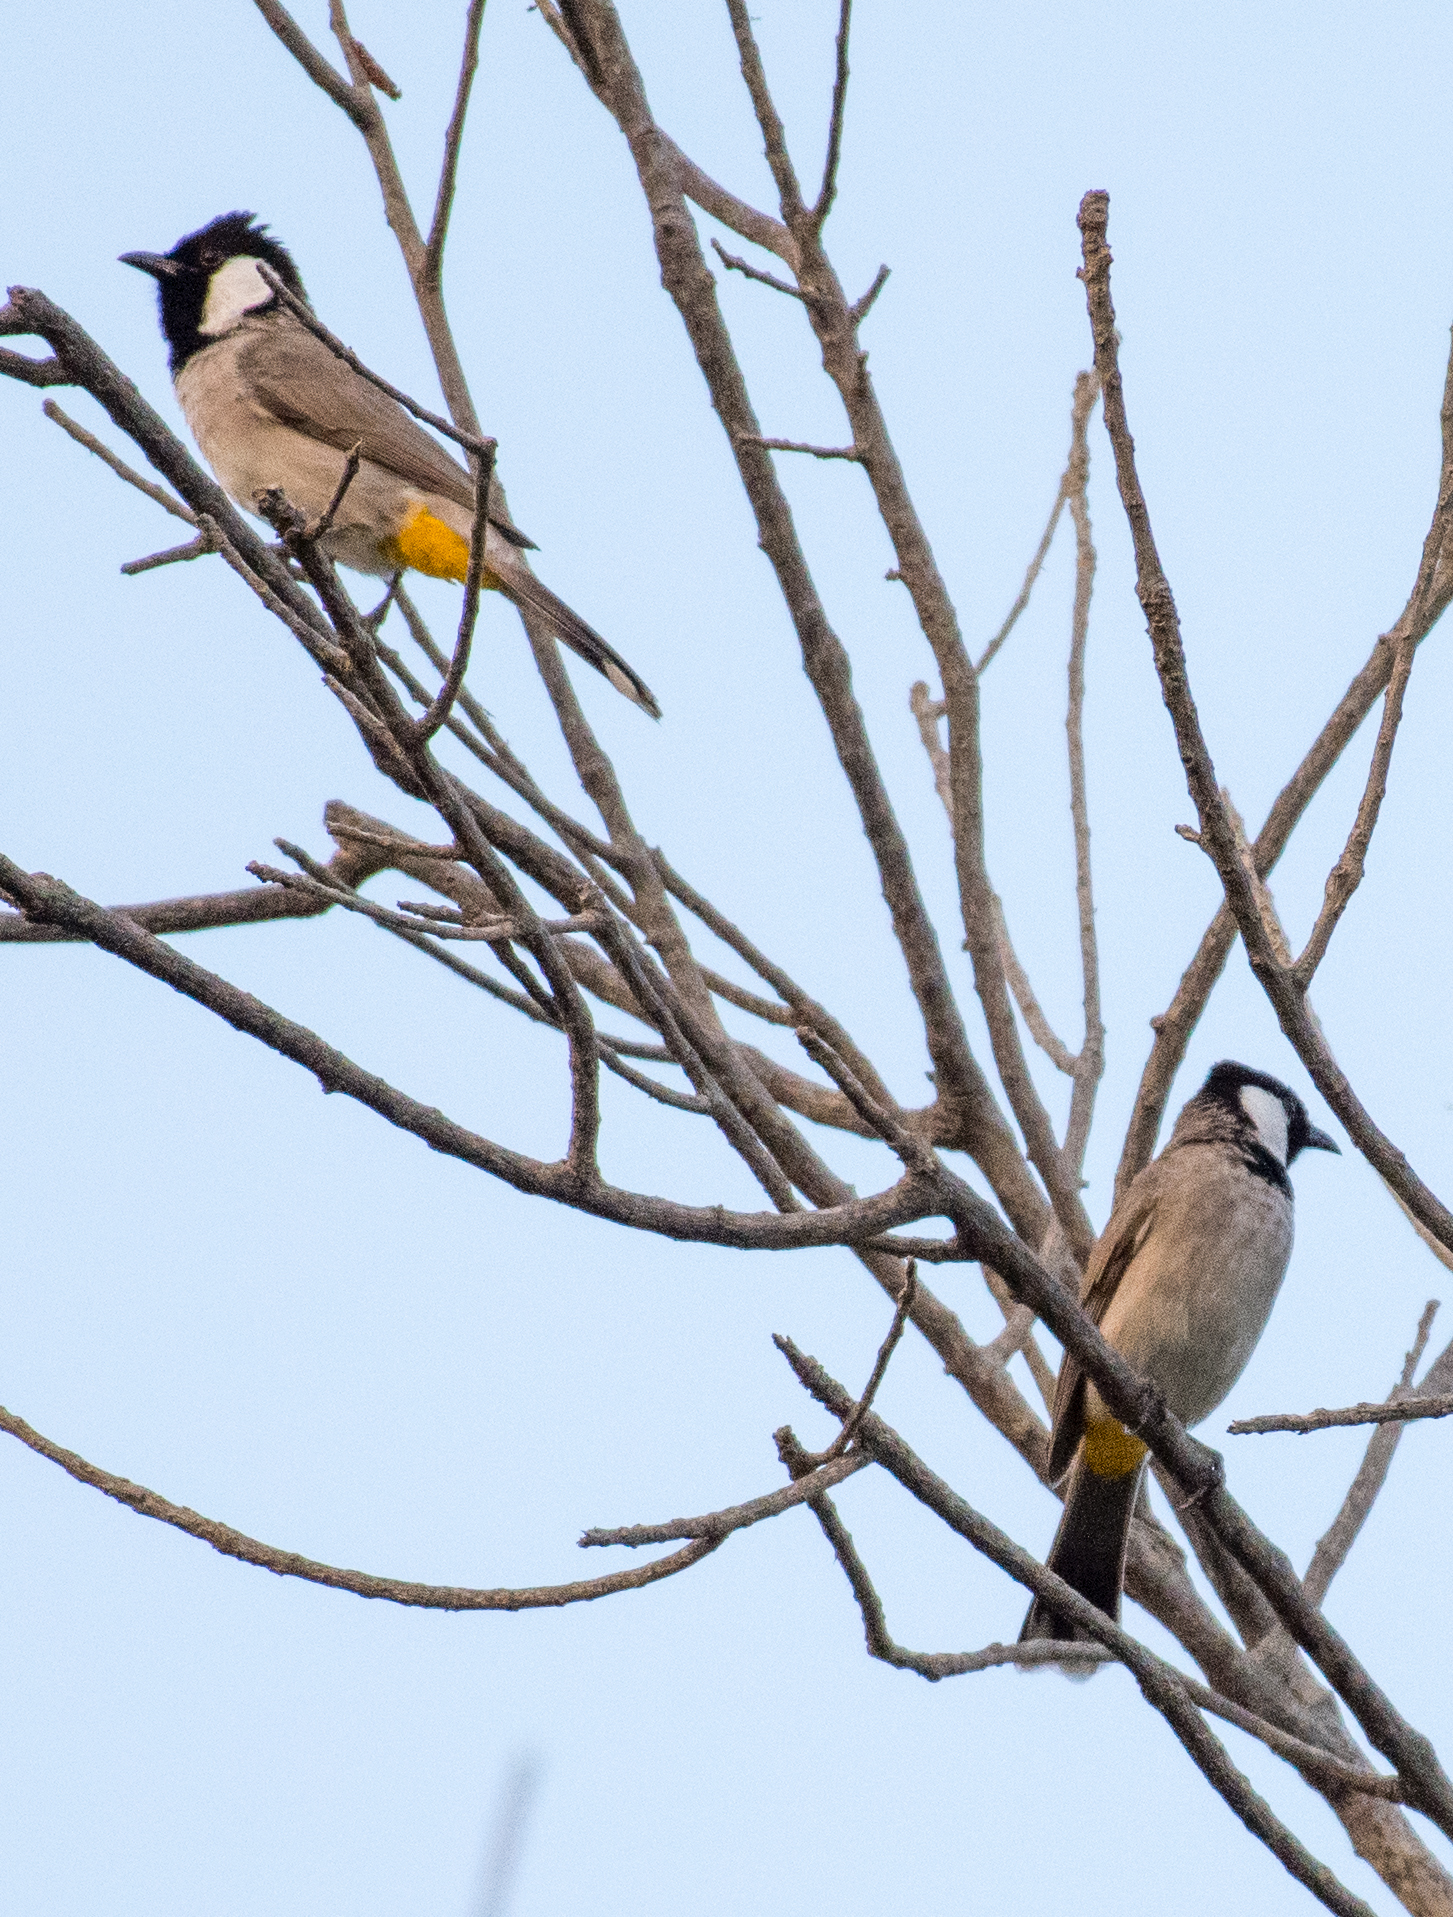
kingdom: Animalia
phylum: Chordata
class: Aves
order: Passeriformes
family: Pycnonotidae
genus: Pycnonotus
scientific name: Pycnonotus leucotis
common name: White-eared bulbul
